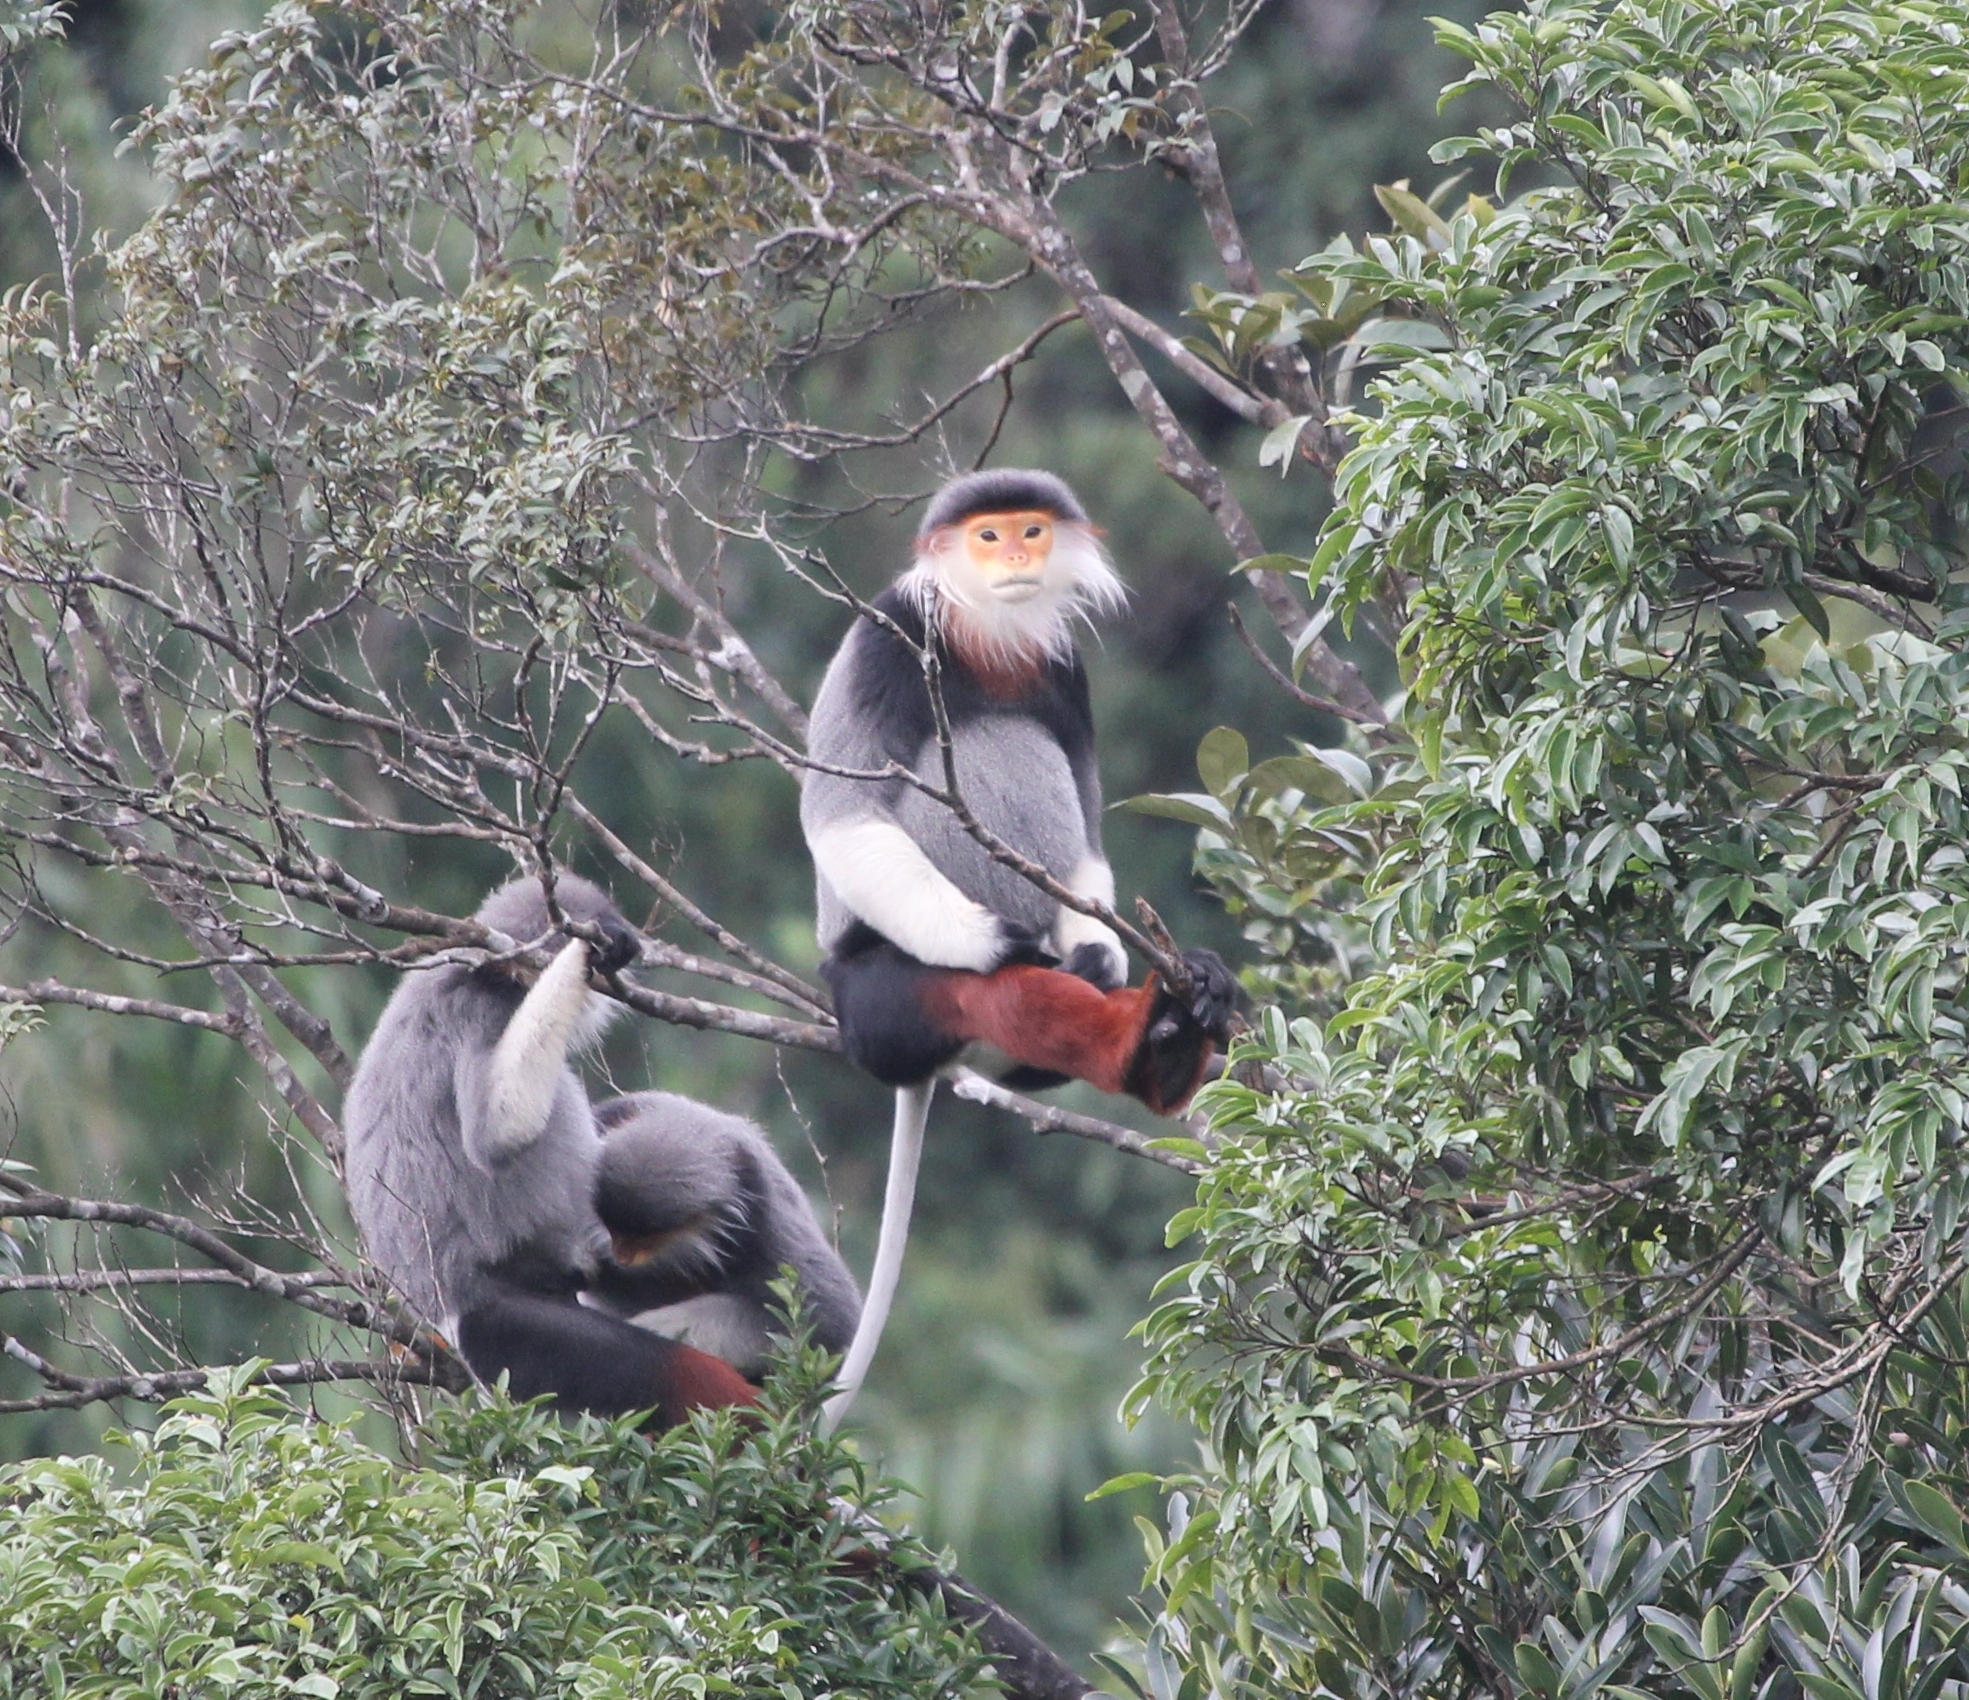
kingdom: Animalia
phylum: Chordata
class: Mammalia
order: Primates
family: Cercopithecidae
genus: Pygathrix
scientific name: Pygathrix nemaeus
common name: Red-shanked douc
